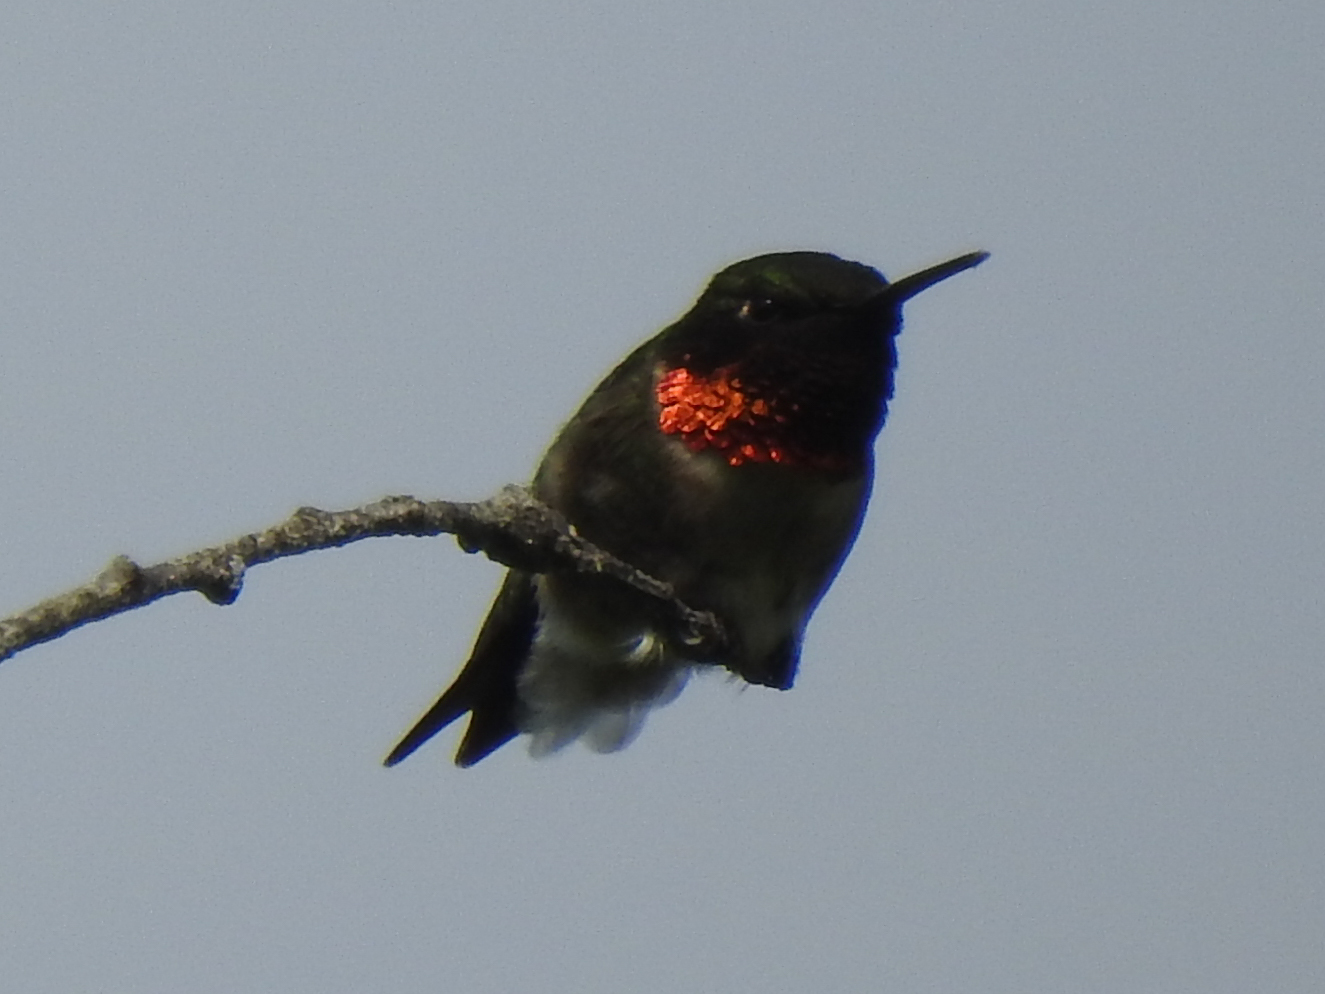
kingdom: Animalia
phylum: Chordata
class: Aves
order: Apodiformes
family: Trochilidae
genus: Archilochus
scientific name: Archilochus colubris
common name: Ruby-throated hummingbird
